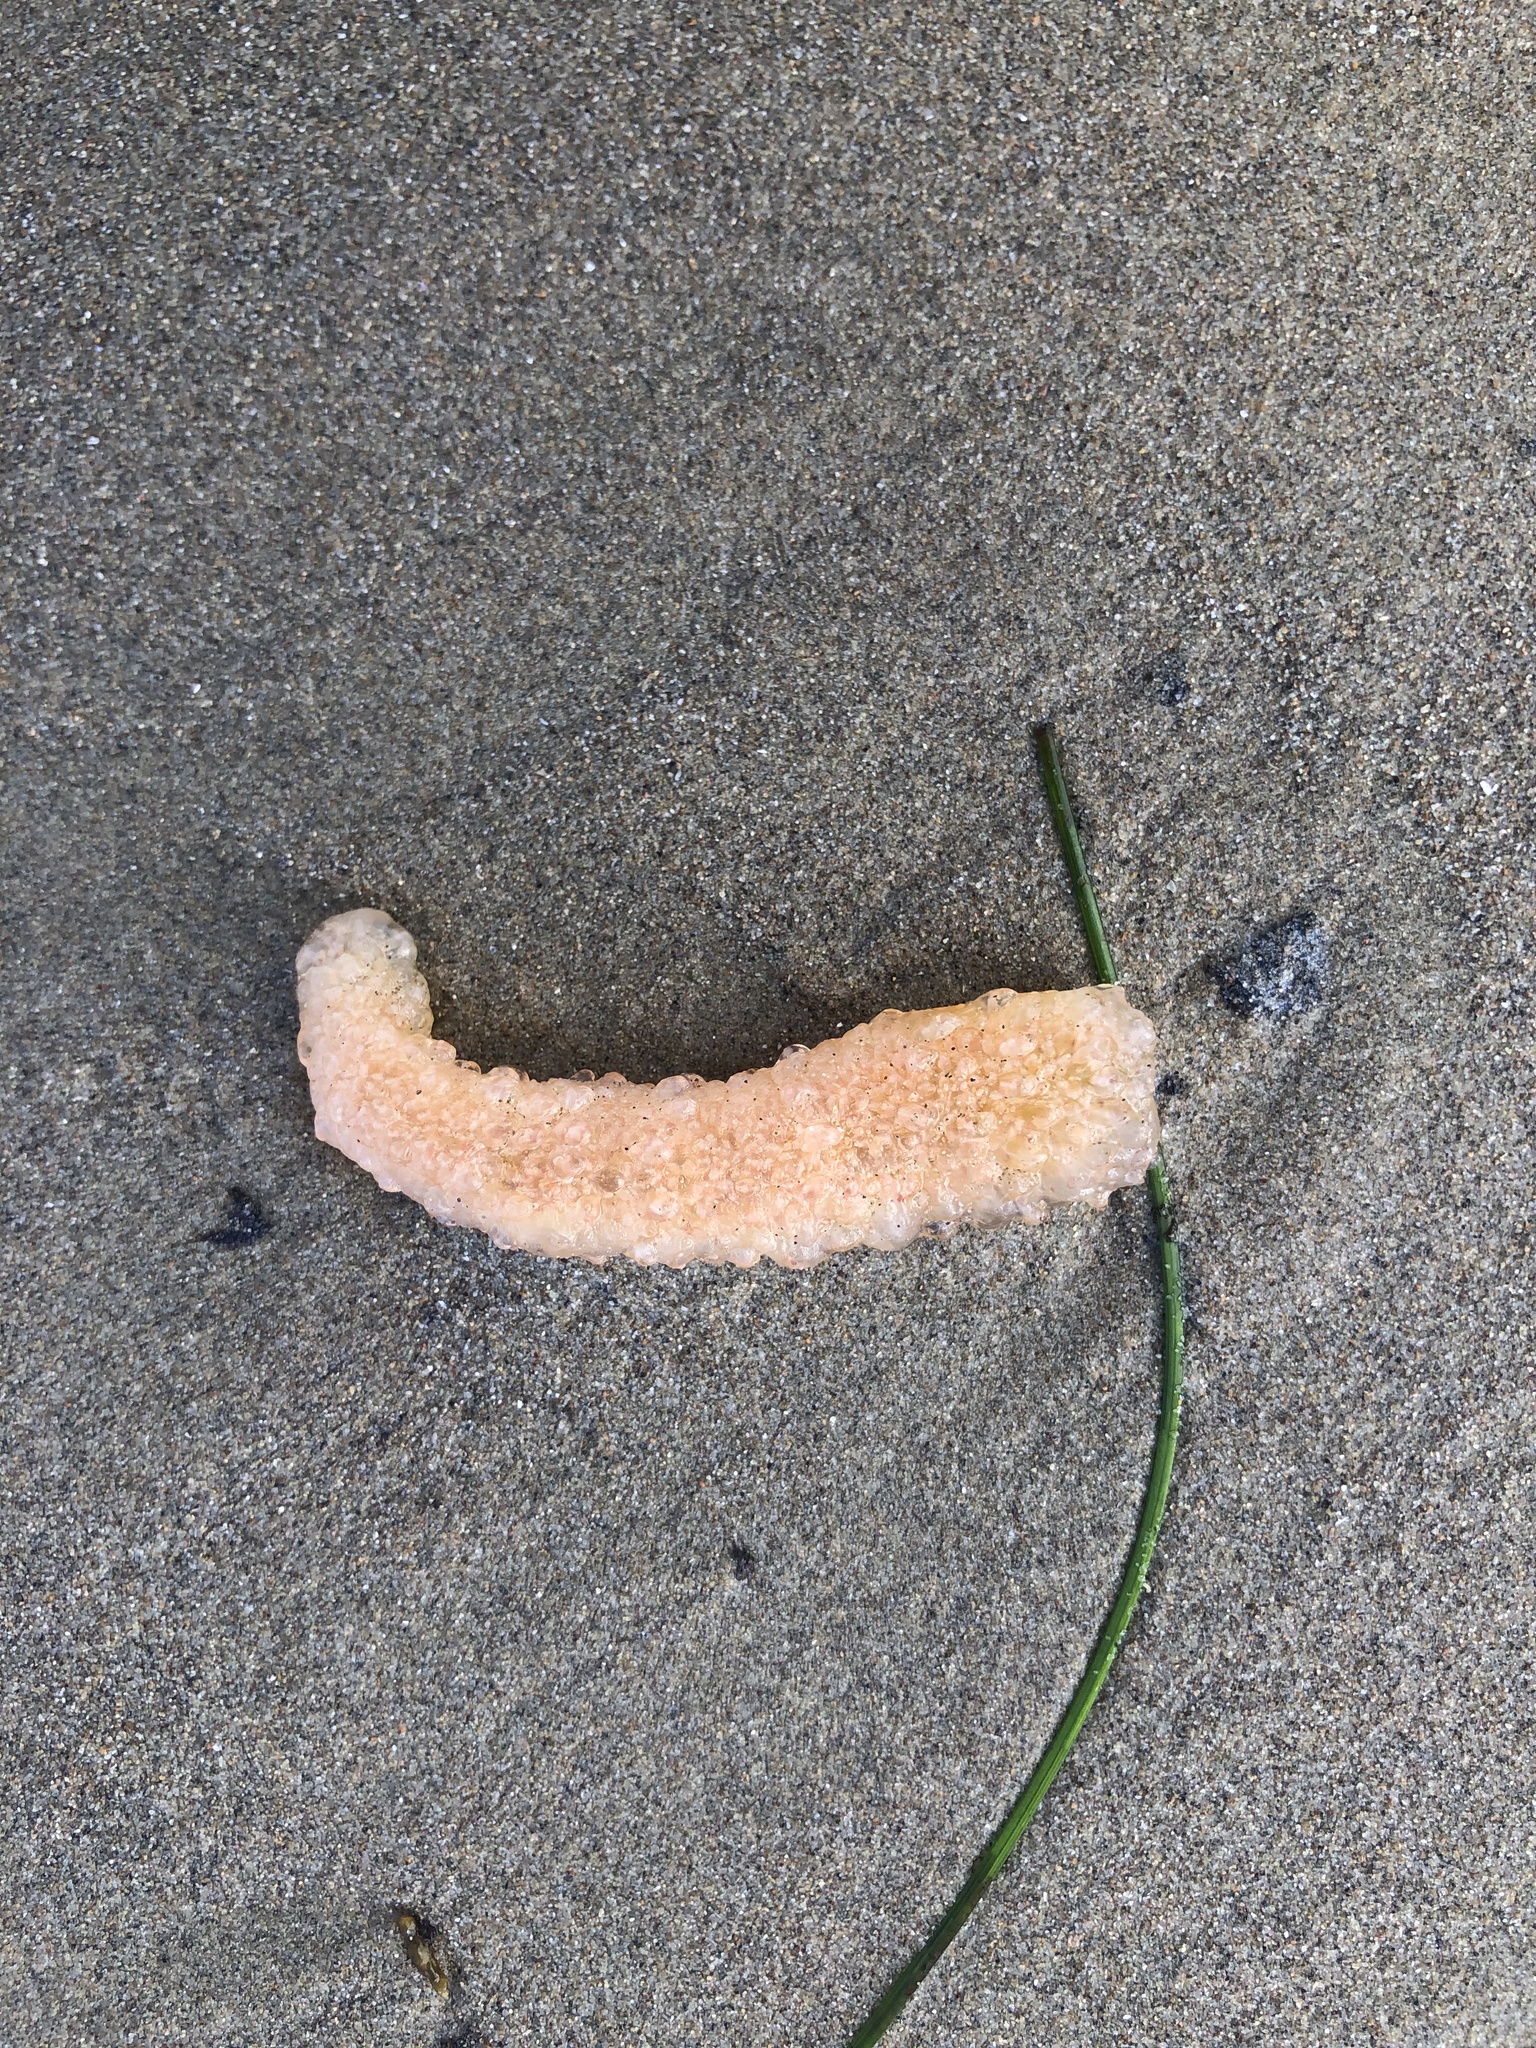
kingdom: Animalia
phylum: Chordata
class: Thaliacea
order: Pyrosomatida
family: Pyrosomatidae
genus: Pyrosoma
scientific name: Pyrosoma atlanticum
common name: Atlantic pyrosomes
